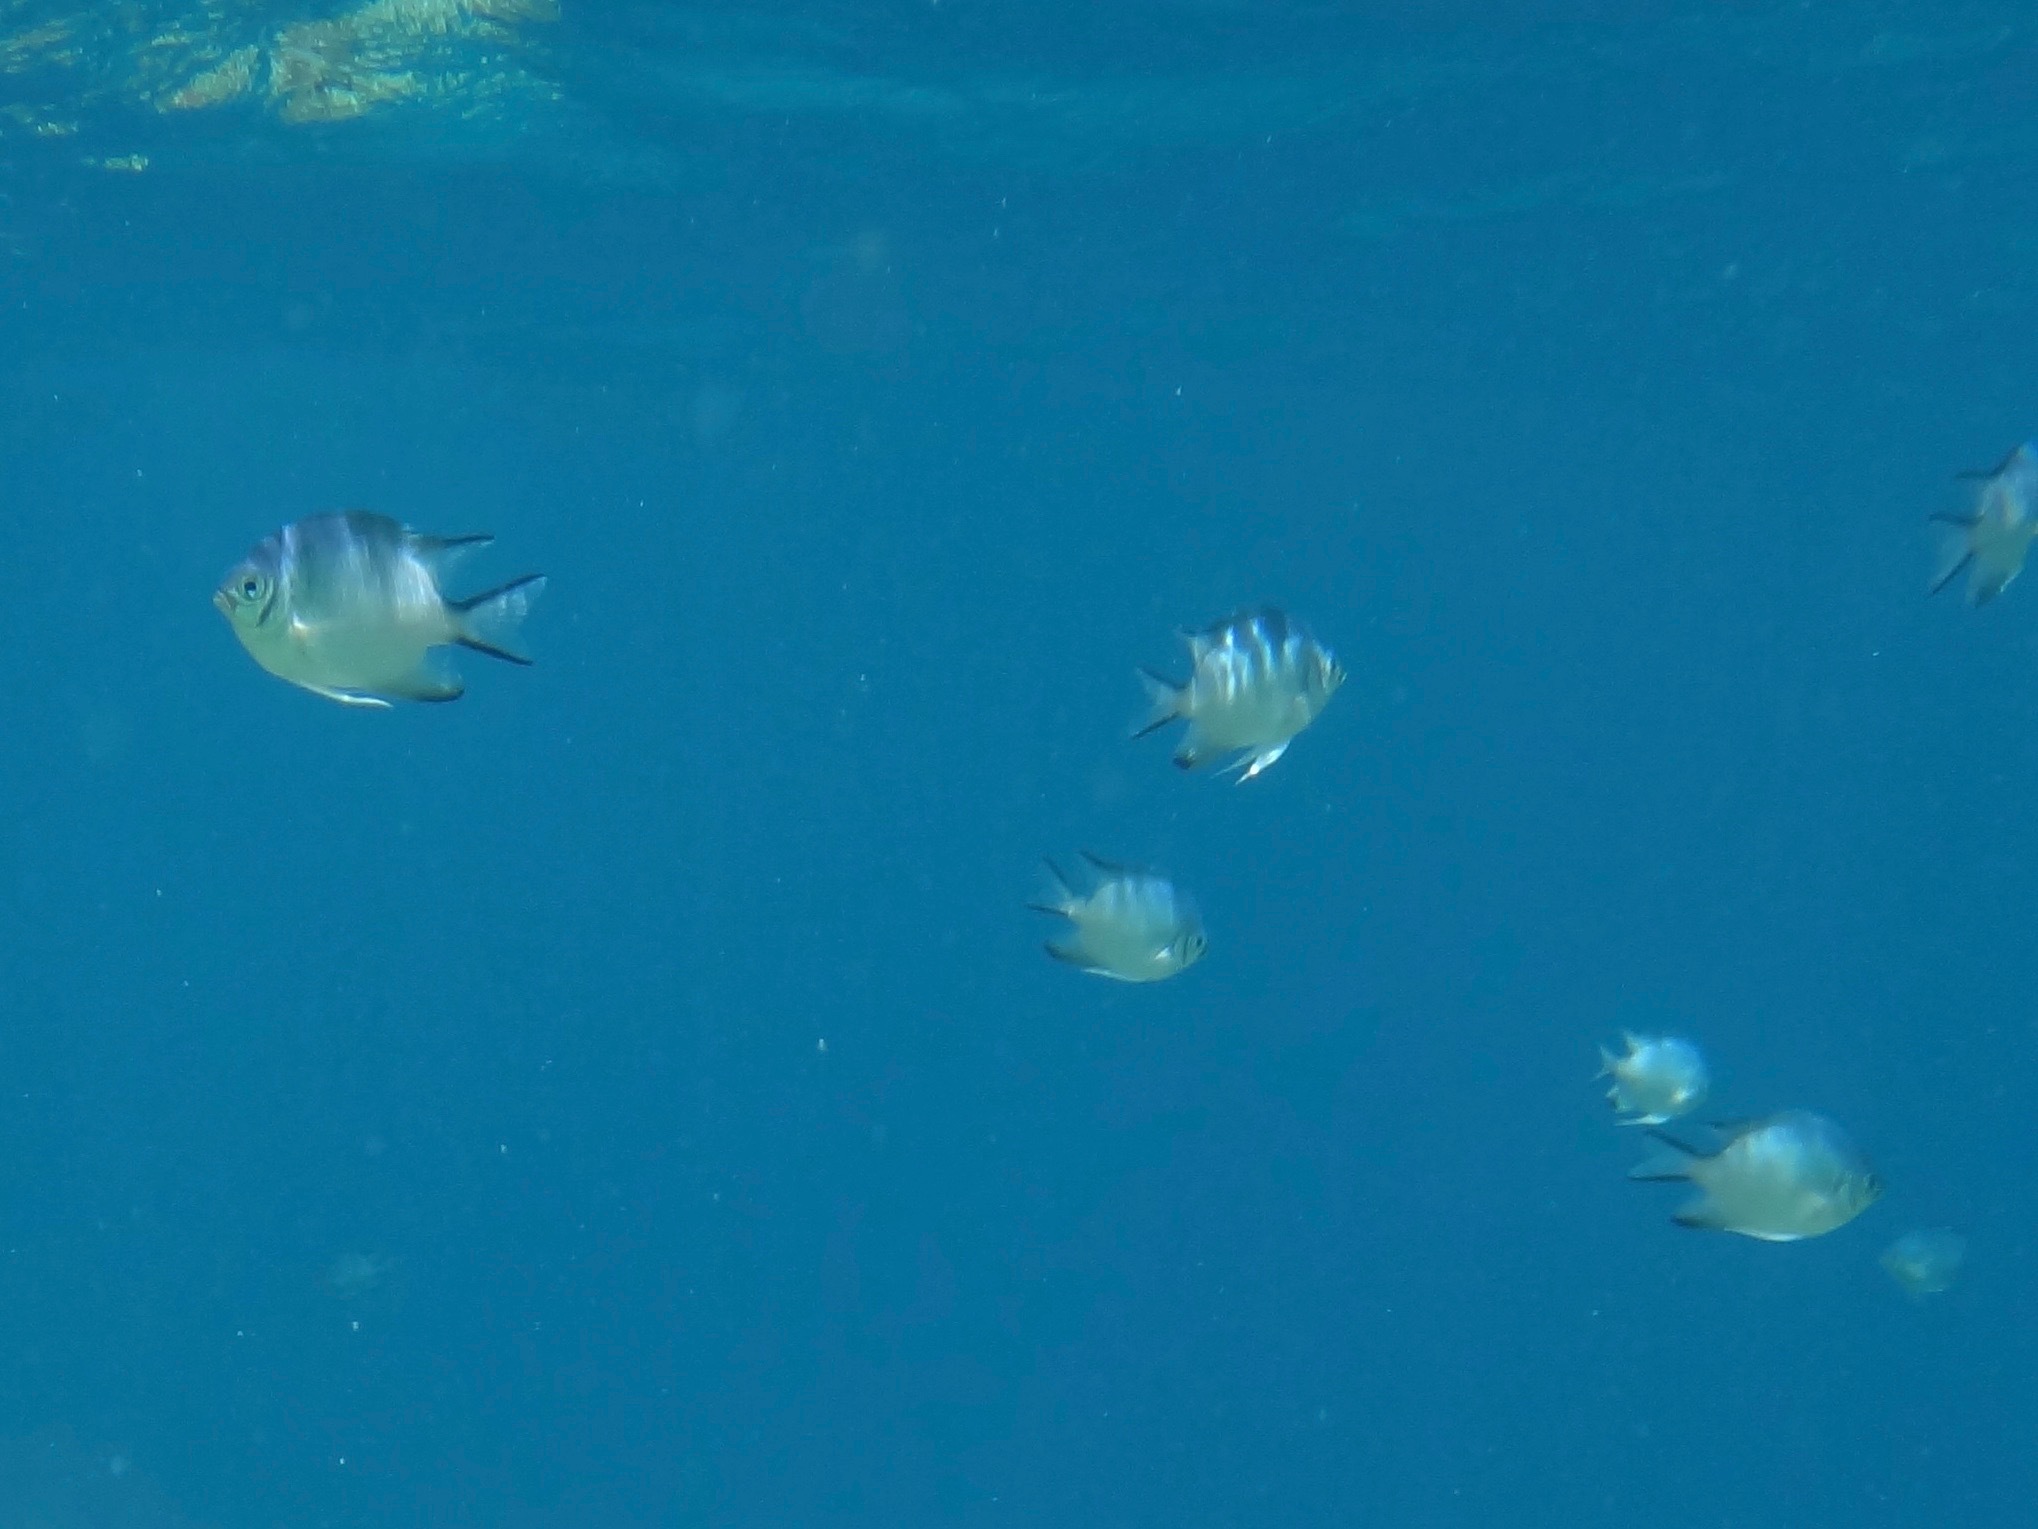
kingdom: Animalia
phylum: Chordata
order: Perciformes
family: Pomacentridae
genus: Amblyglyphidodon
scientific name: Amblyglyphidodon indicus
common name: Maldives damselfish
